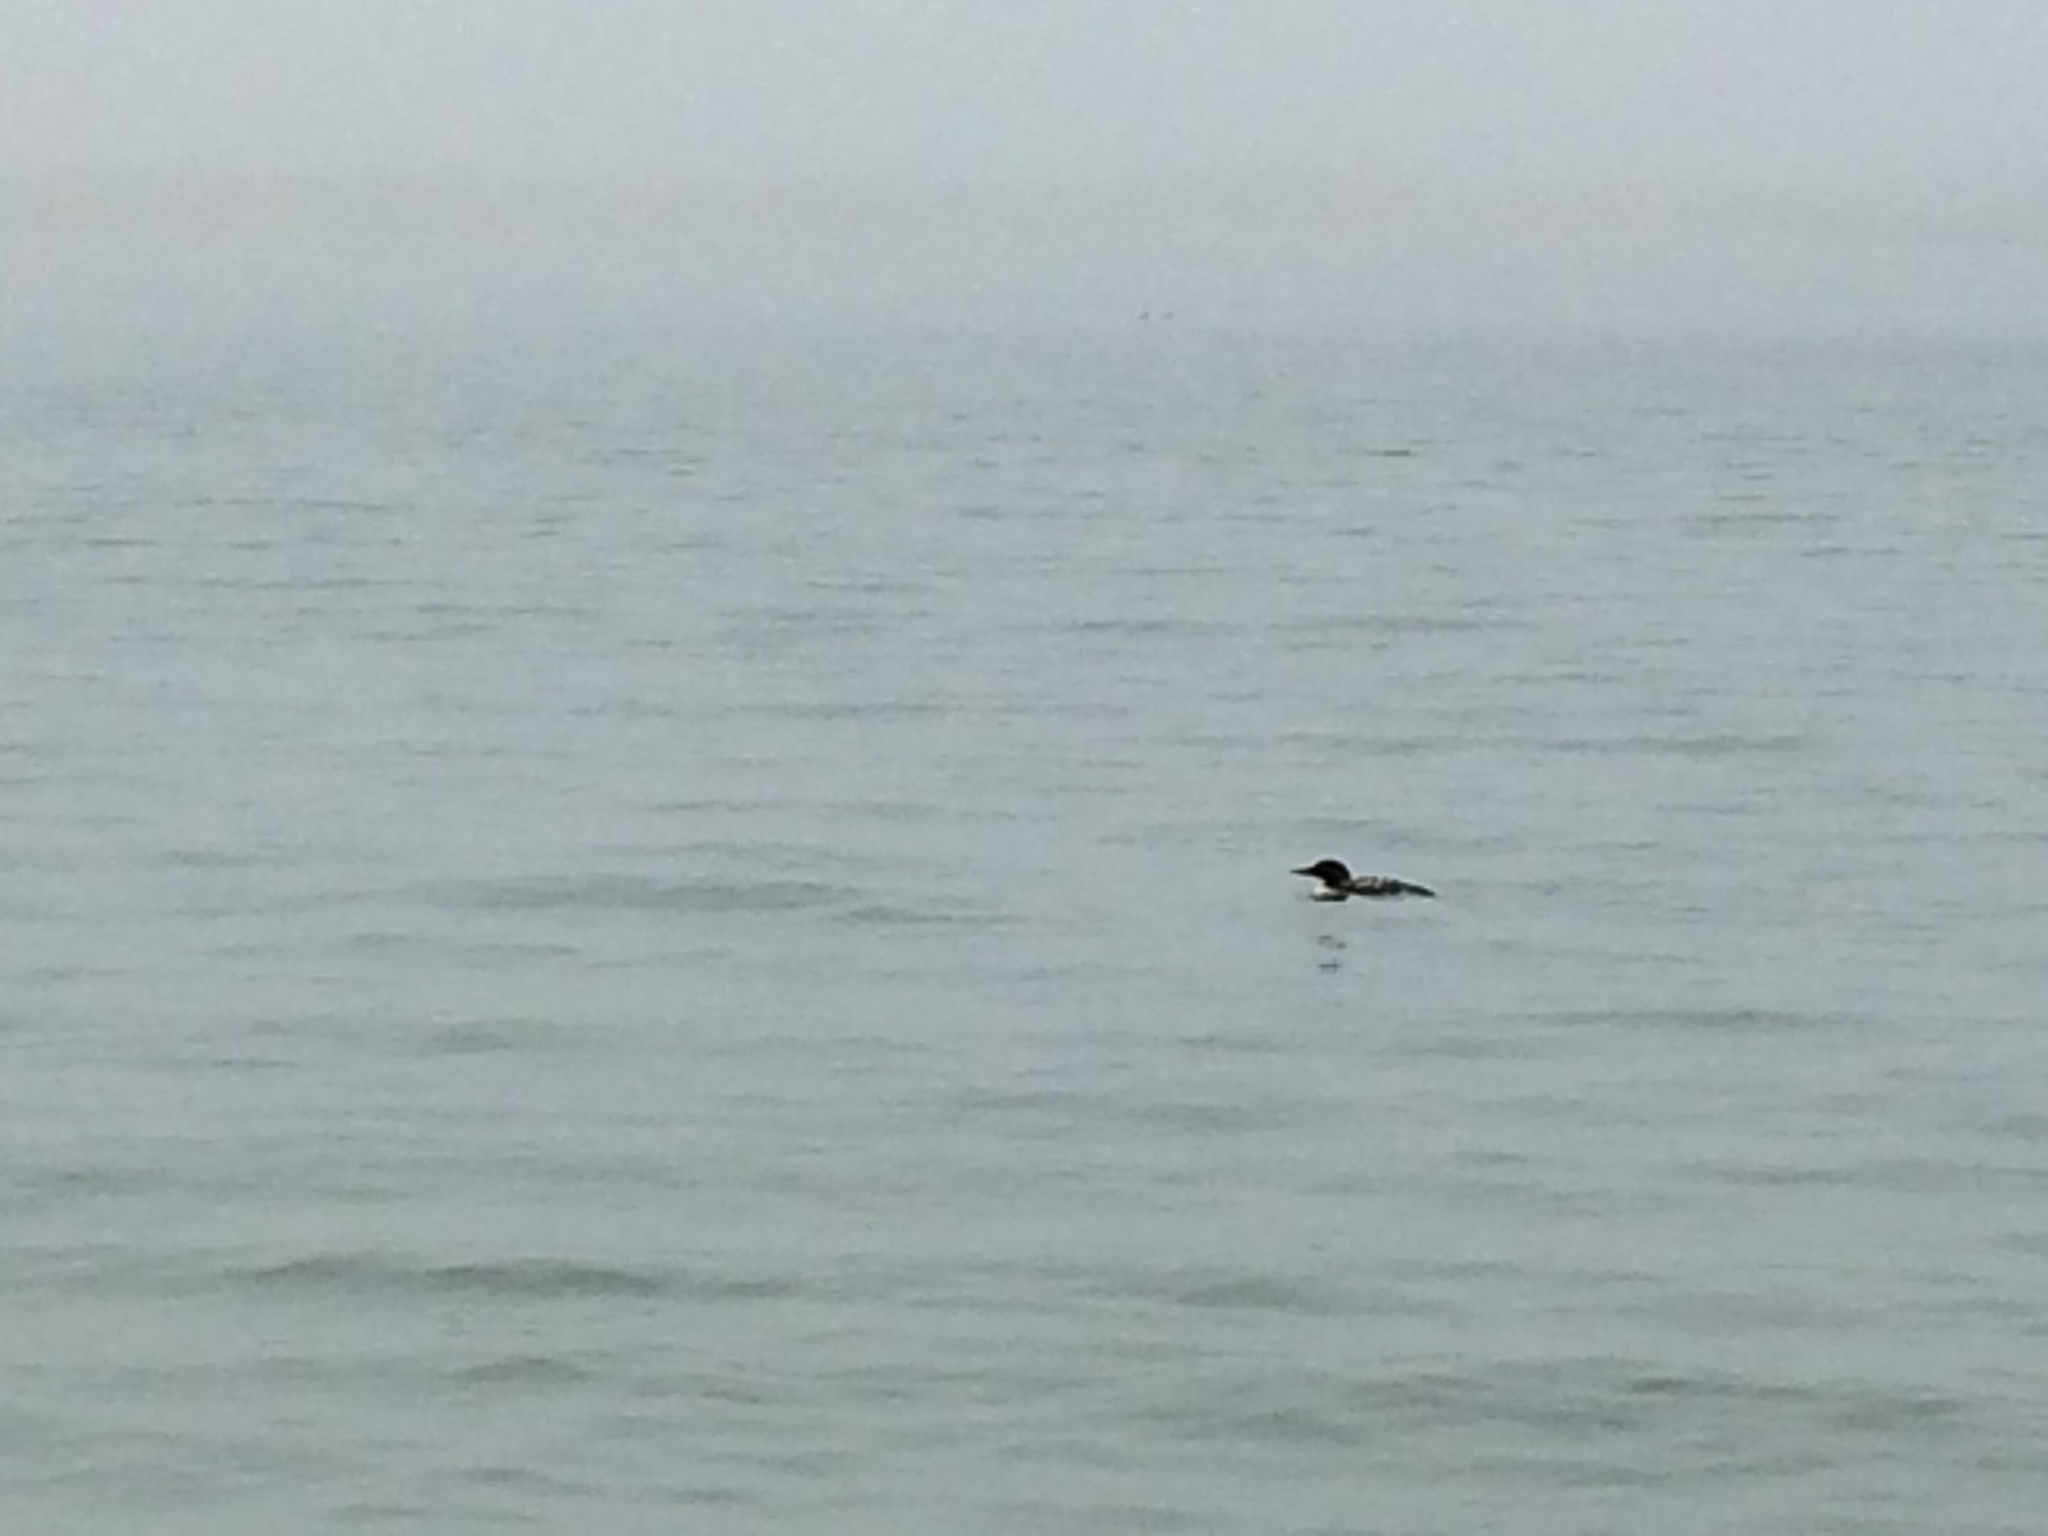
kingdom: Animalia
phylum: Chordata
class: Aves
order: Gaviiformes
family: Gaviidae
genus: Gavia
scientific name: Gavia immer
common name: Common loon
